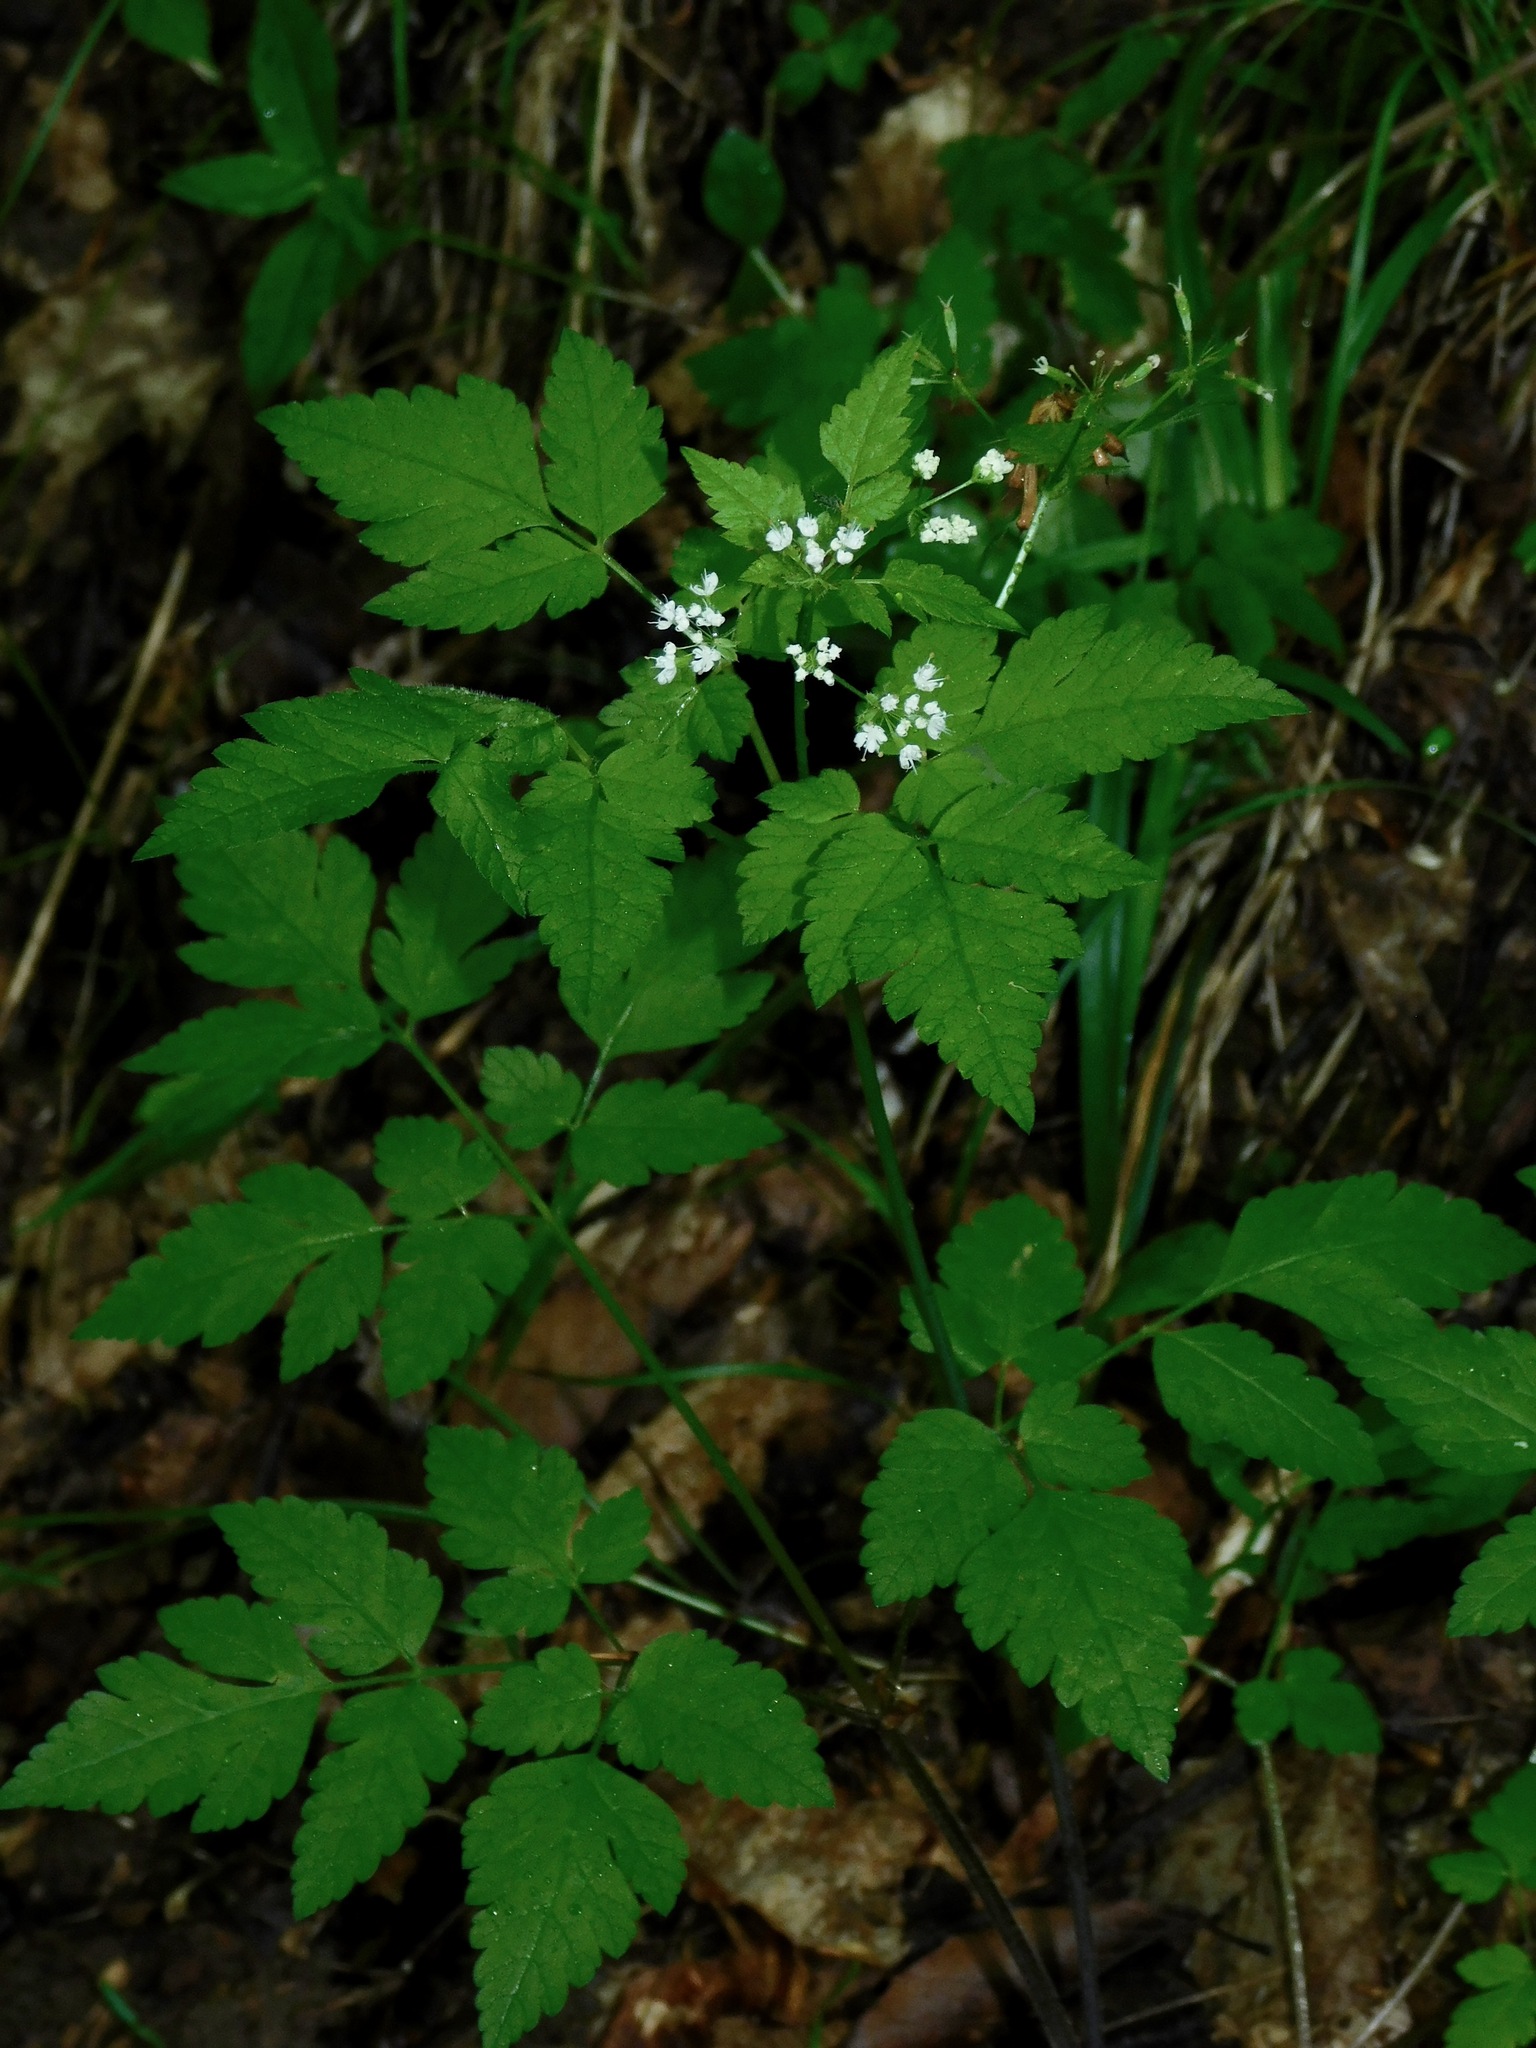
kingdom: Plantae
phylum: Tracheophyta
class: Magnoliopsida
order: Apiales
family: Apiaceae
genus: Osmorhiza
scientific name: Osmorhiza longistylis
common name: Smooth sweet cicely
